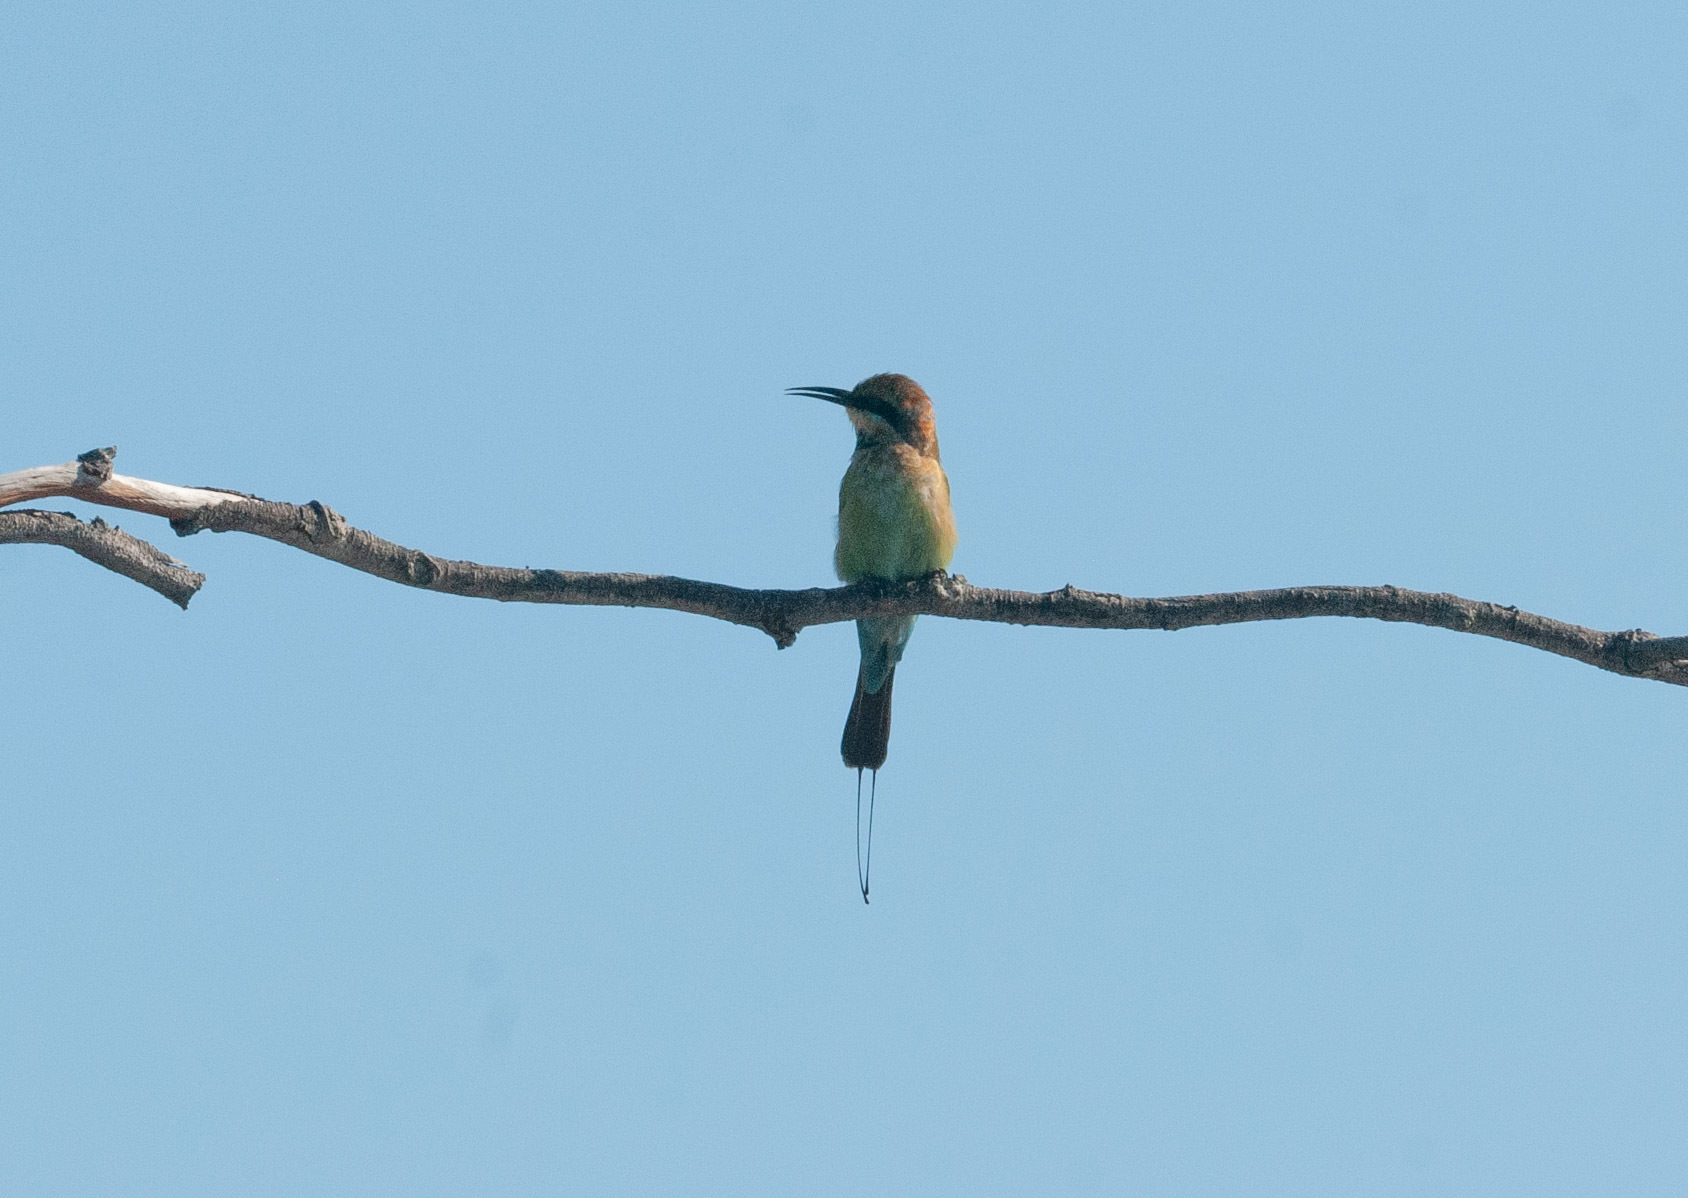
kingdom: Animalia
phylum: Chordata
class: Aves
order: Coraciiformes
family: Meropidae
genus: Merops
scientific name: Merops ornatus
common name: Rainbow bee-eater
